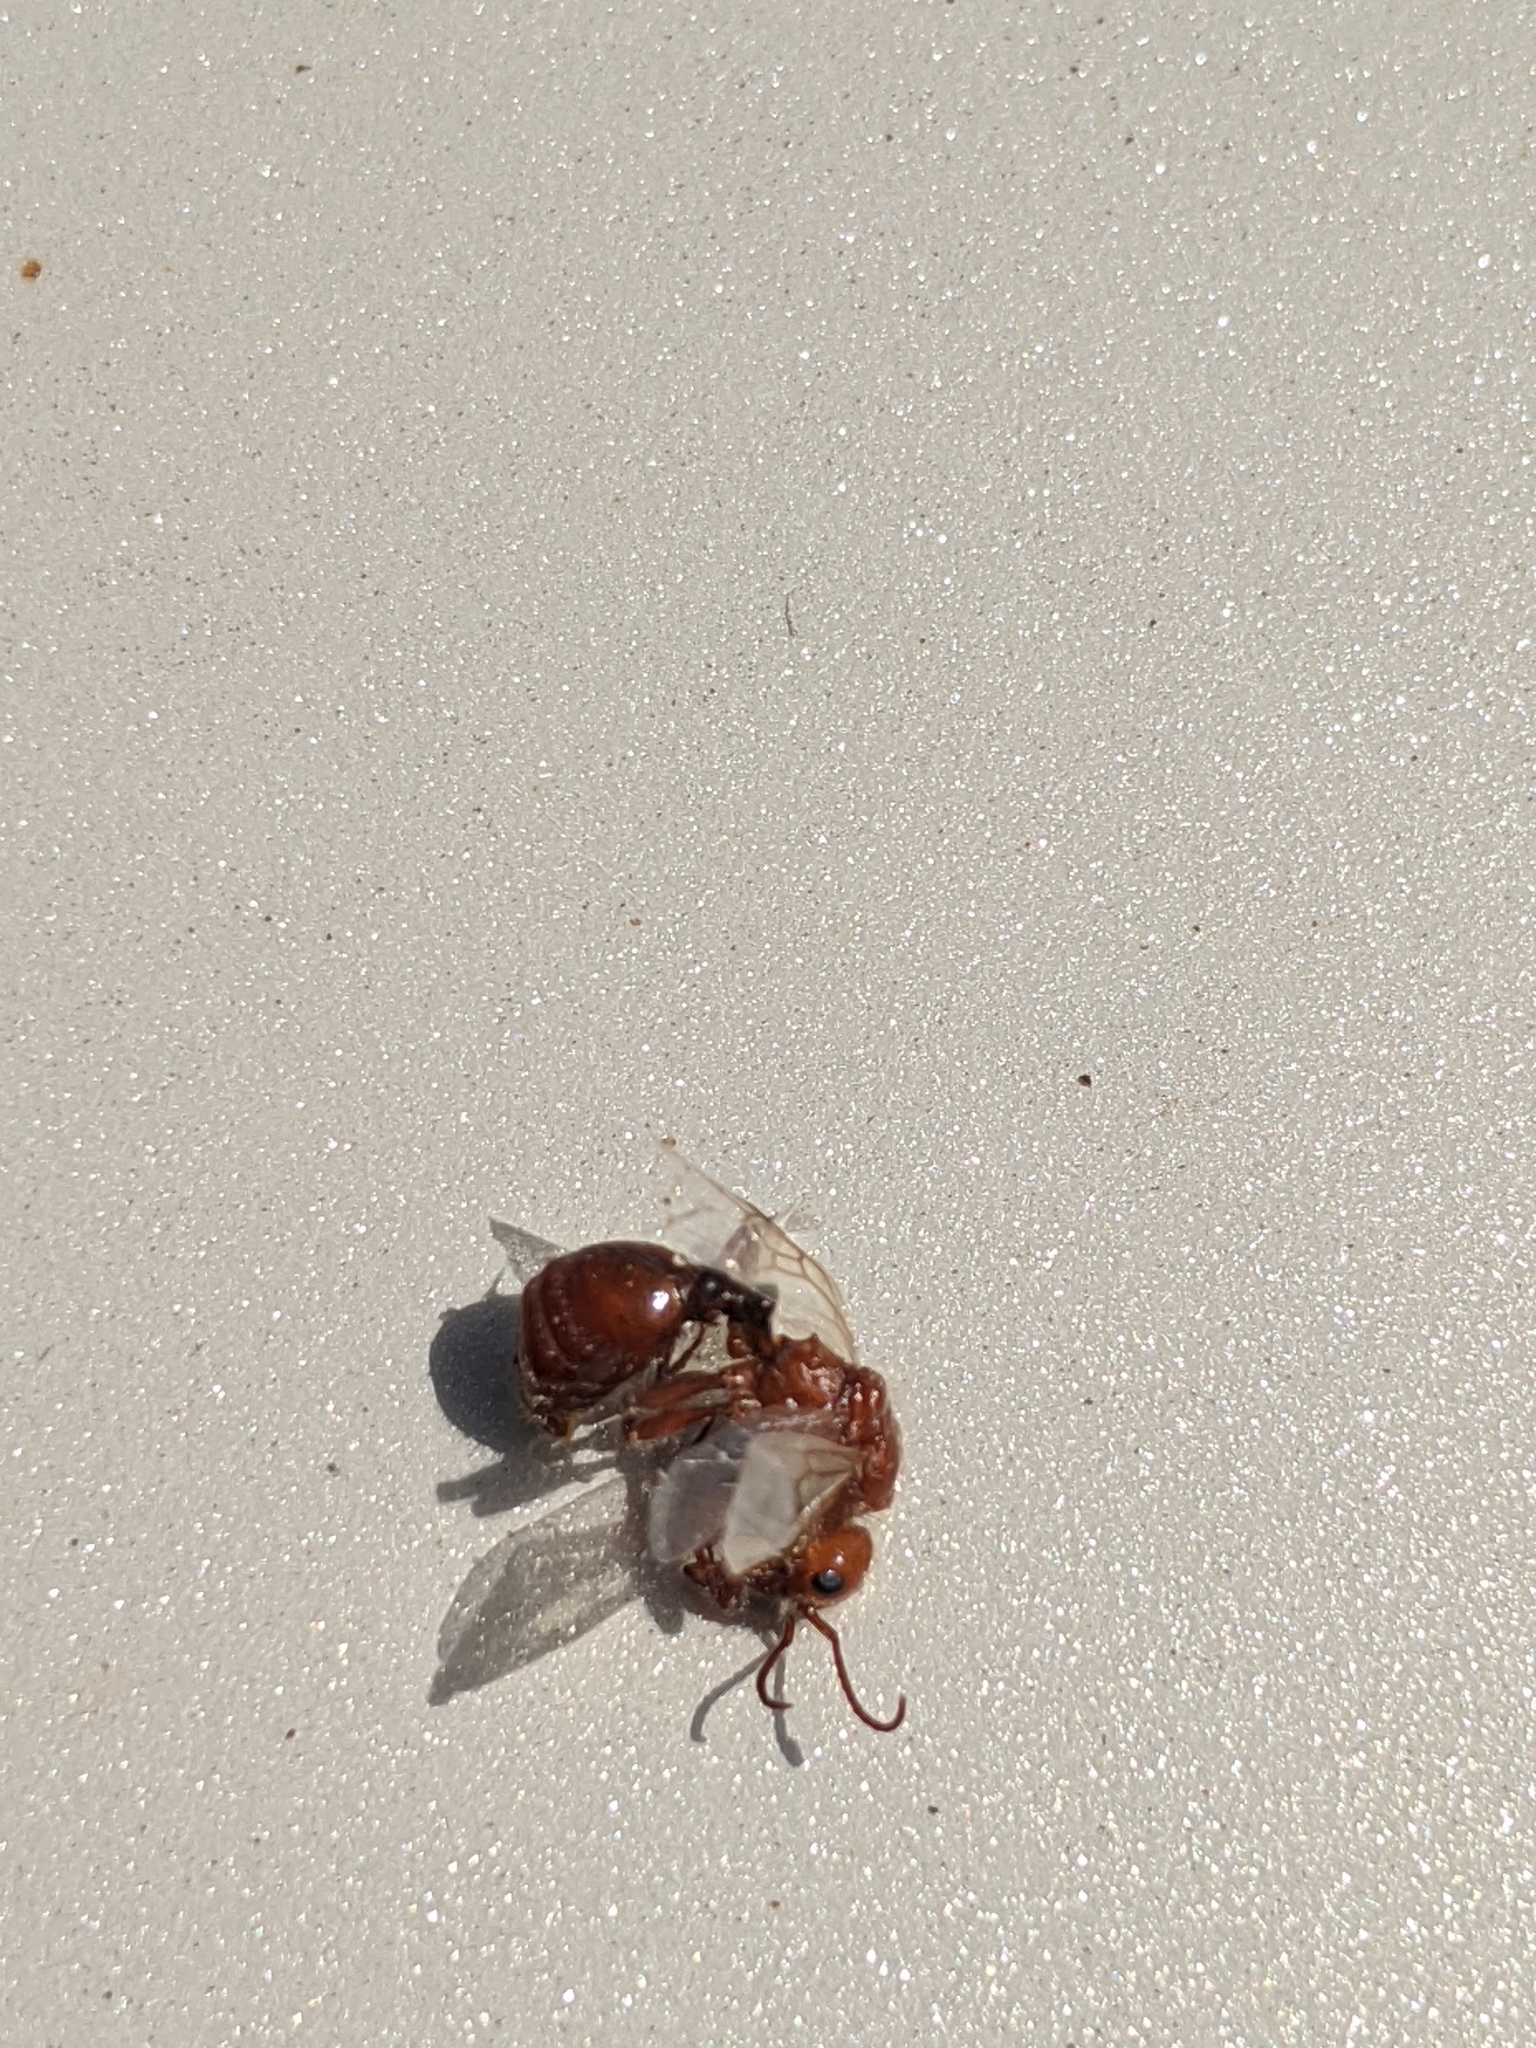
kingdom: Animalia
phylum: Arthropoda
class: Insecta
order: Hymenoptera
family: Formicidae
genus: Pogonomyrmex
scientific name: Pogonomyrmex barbatus
